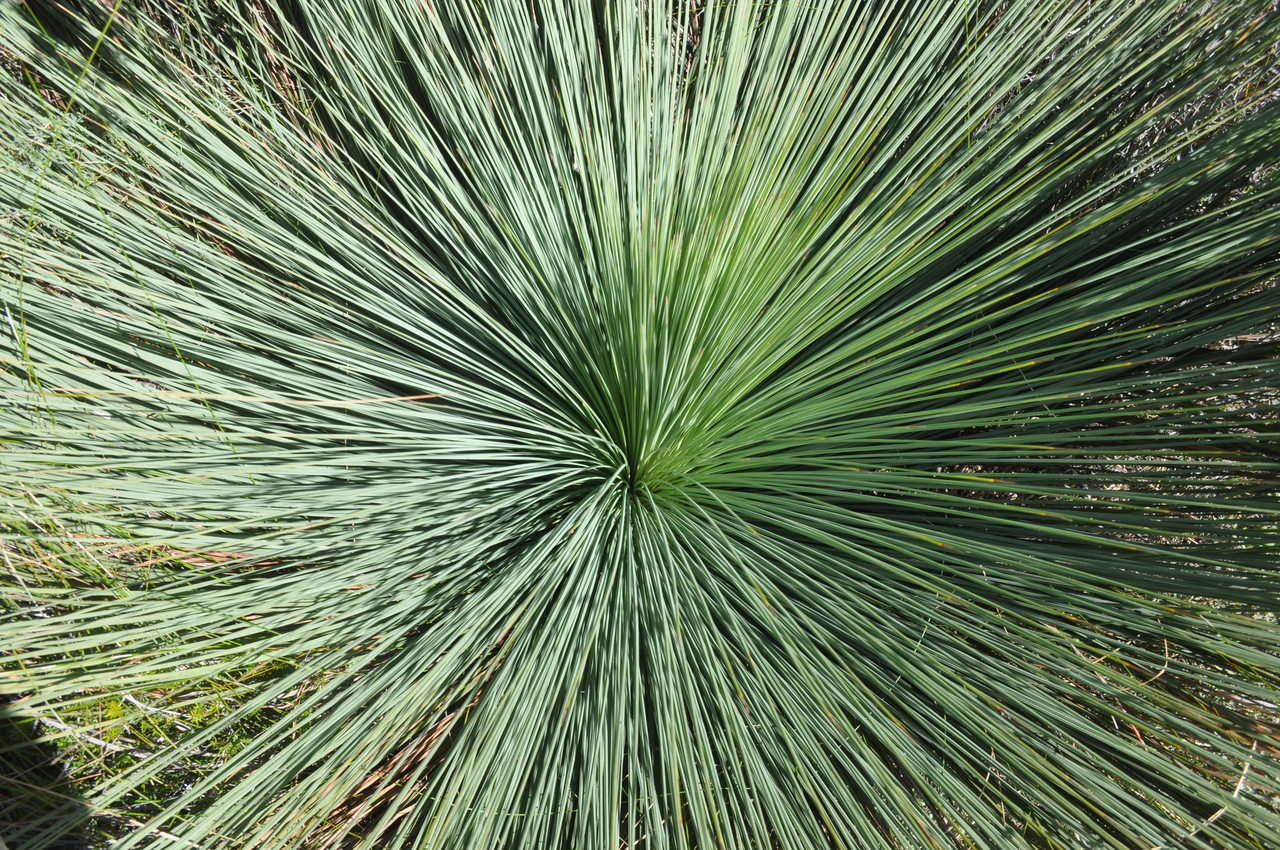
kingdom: Plantae
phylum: Tracheophyta
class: Liliopsida
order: Asparagales
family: Asphodelaceae
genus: Xanthorrhoea
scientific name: Xanthorrhoea australis
